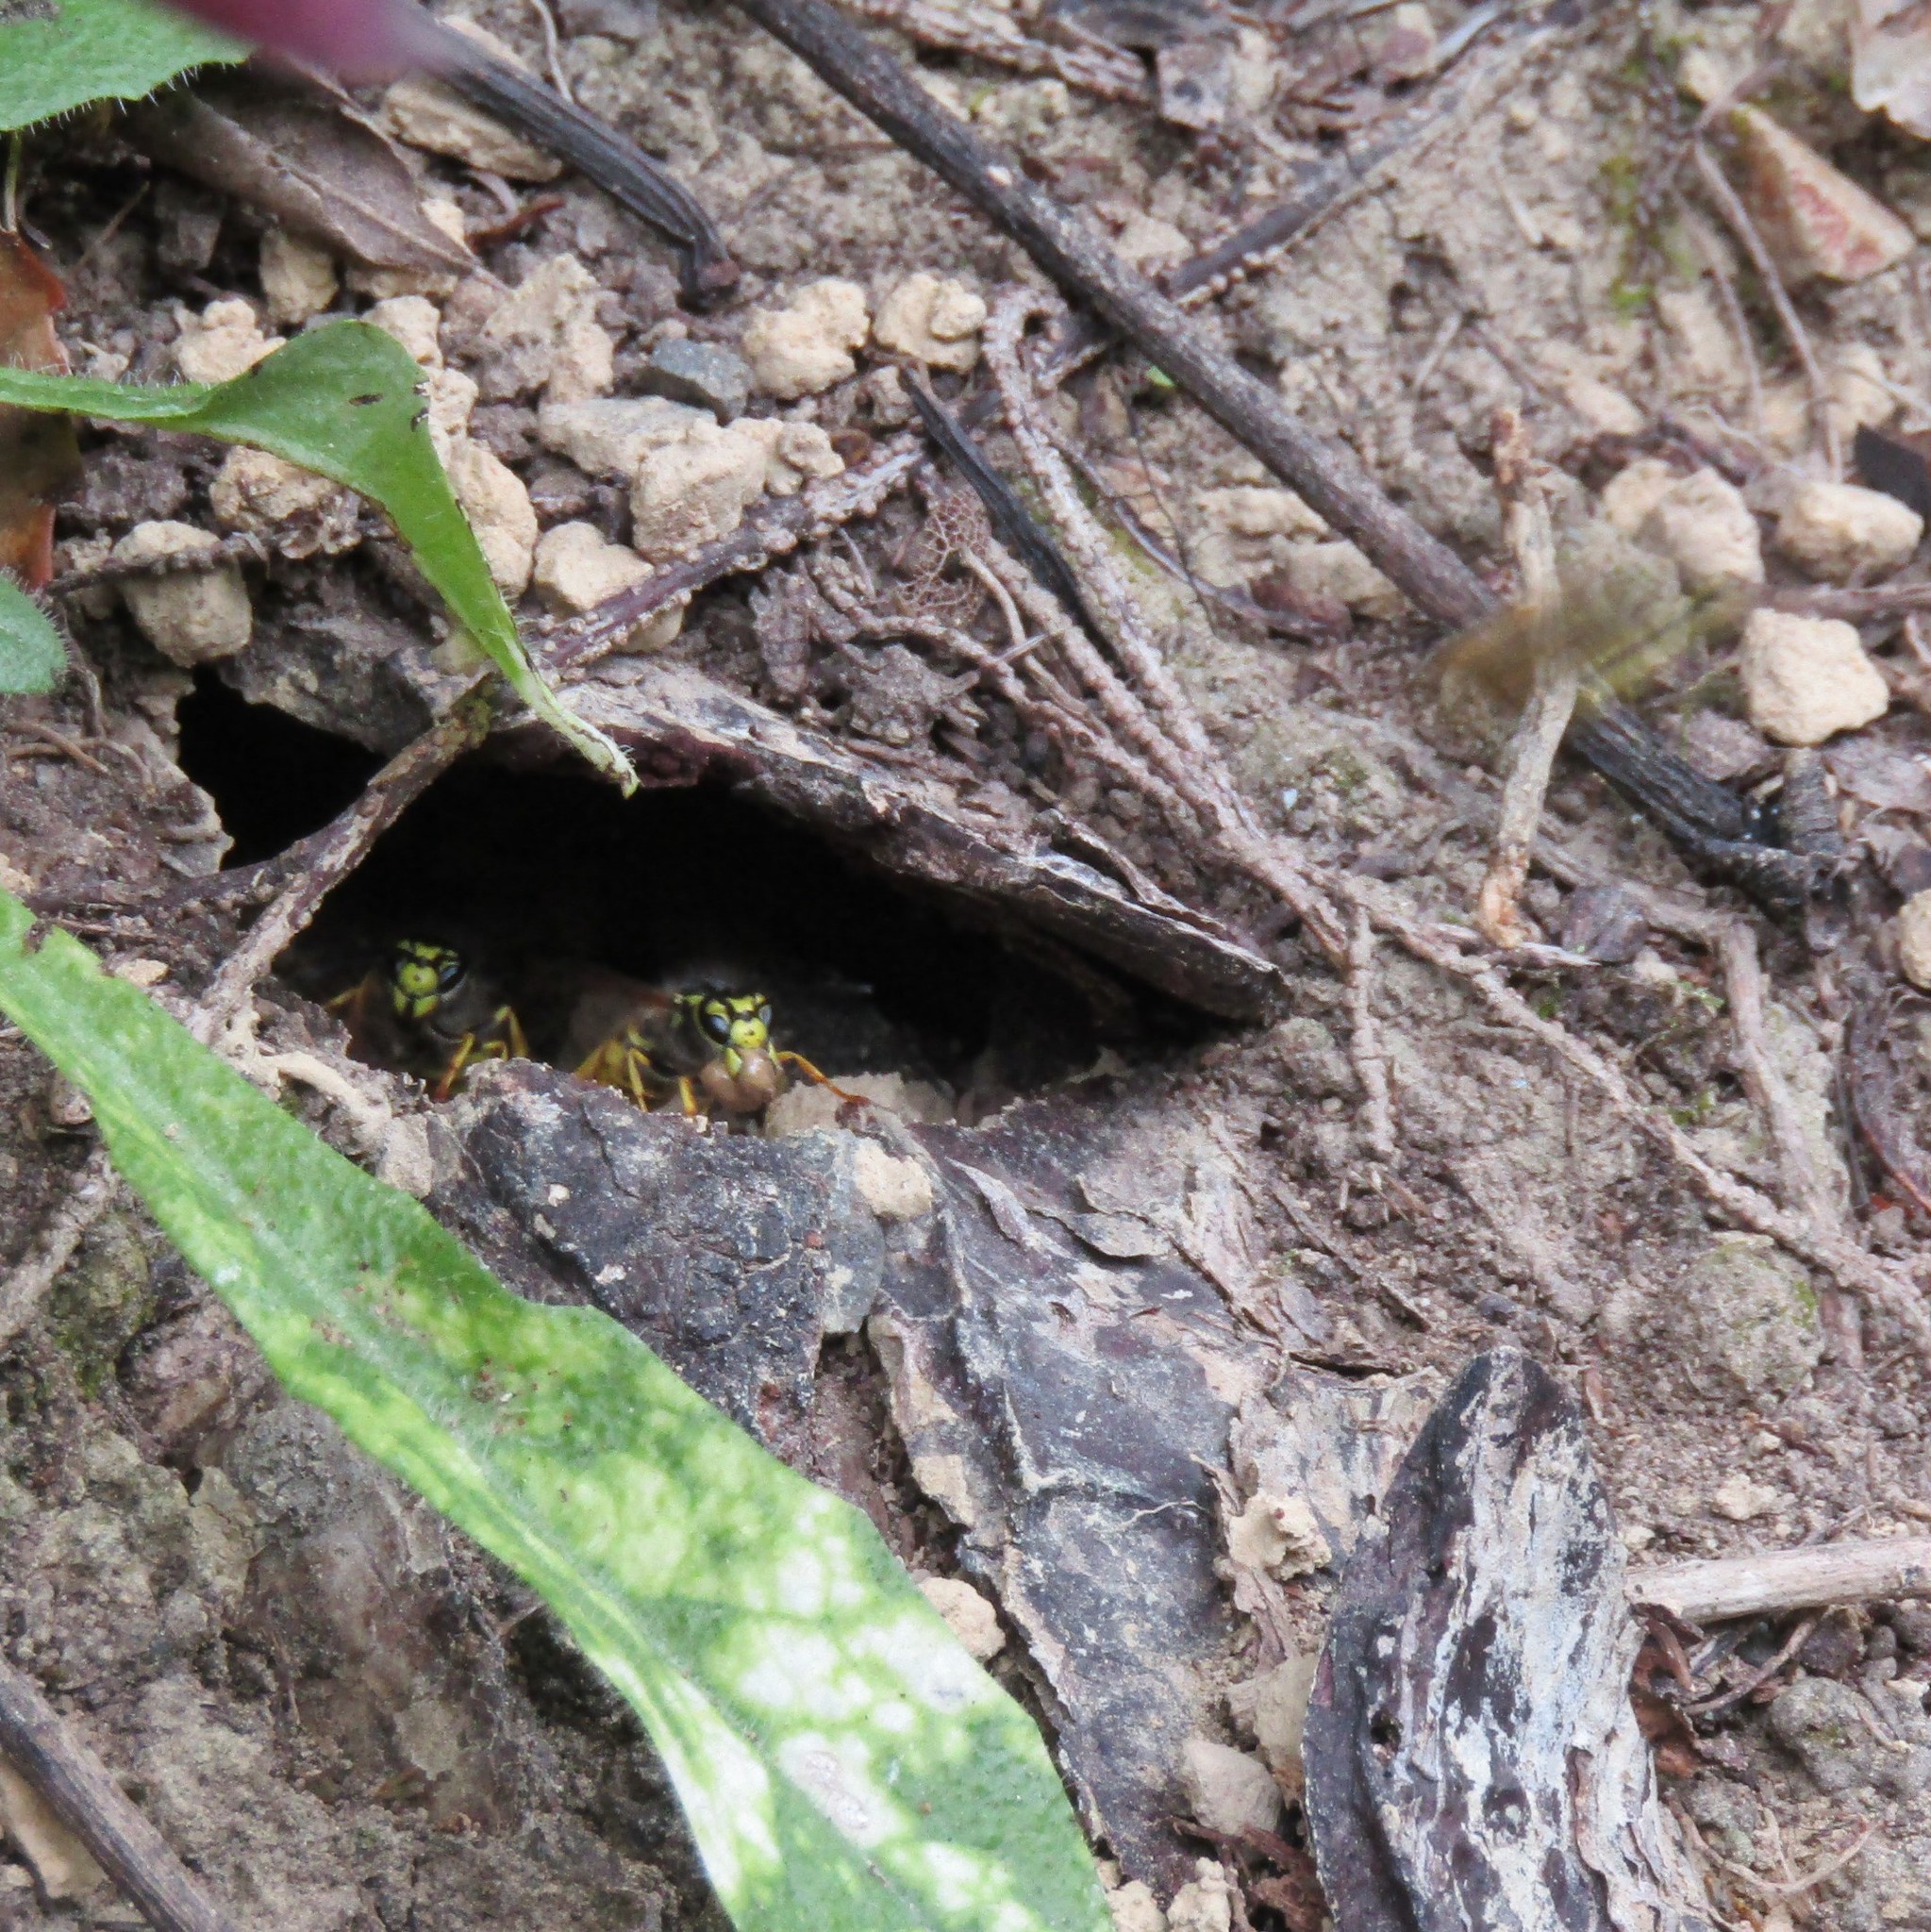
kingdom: Animalia
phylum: Arthropoda
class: Insecta
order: Hymenoptera
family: Vespidae
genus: Vespula
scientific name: Vespula germanica
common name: German wasp
